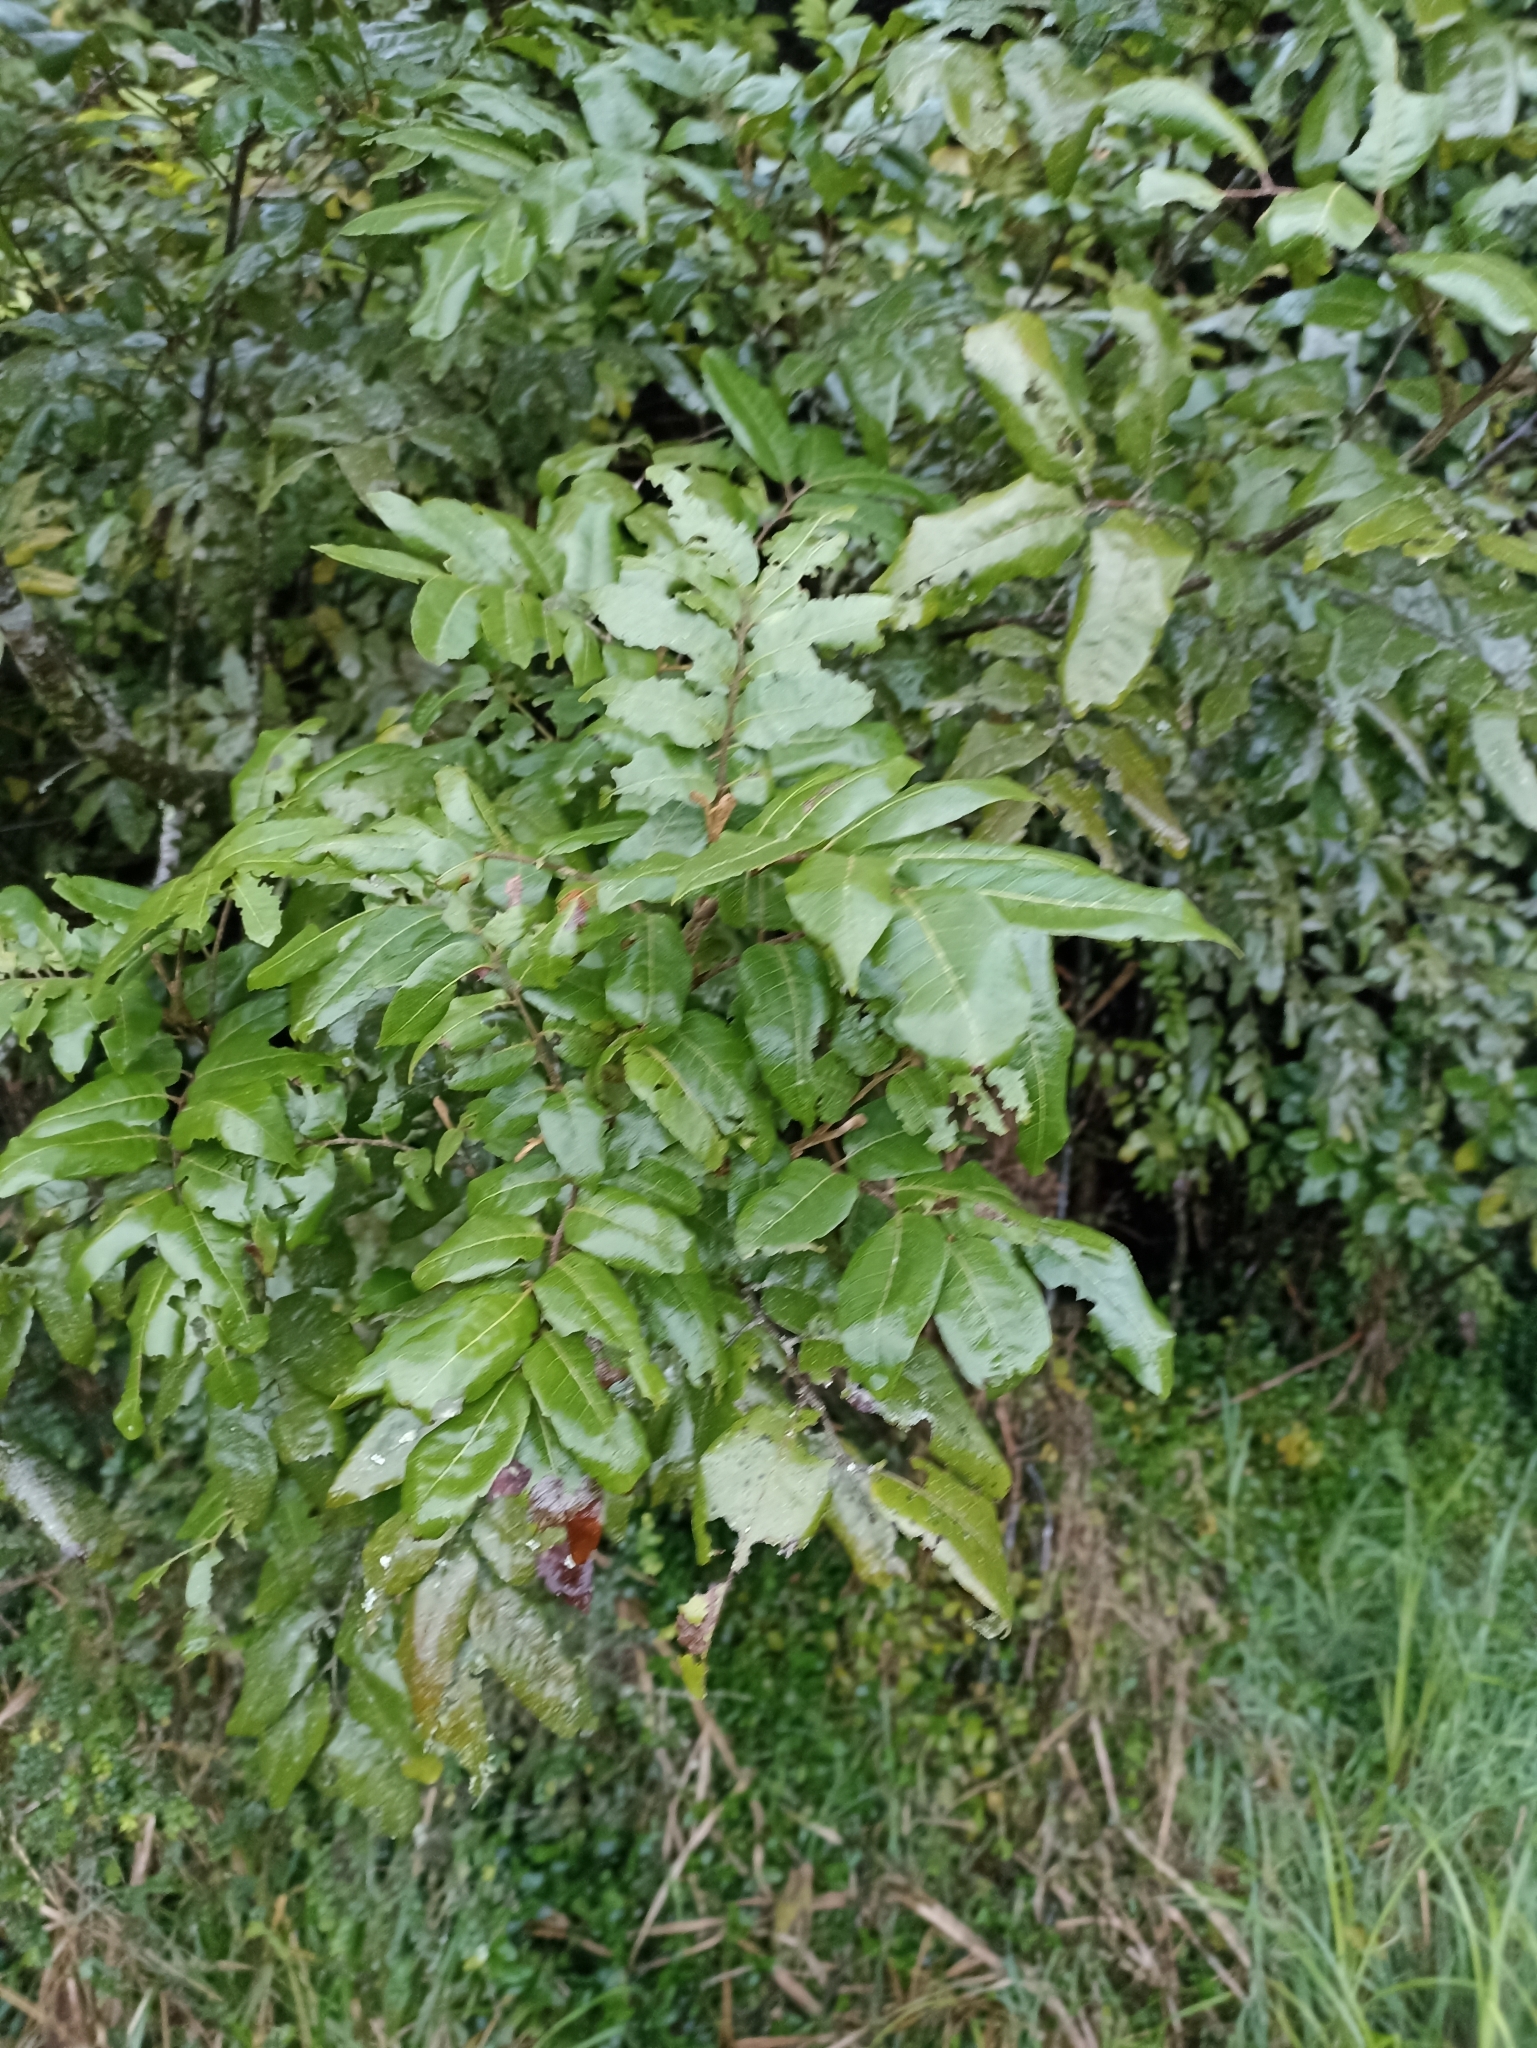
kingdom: Plantae
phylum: Tracheophyta
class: Magnoliopsida
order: Sapindales
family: Sapindaceae
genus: Alectryon
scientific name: Alectryon excelsus
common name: Three kings titoki
